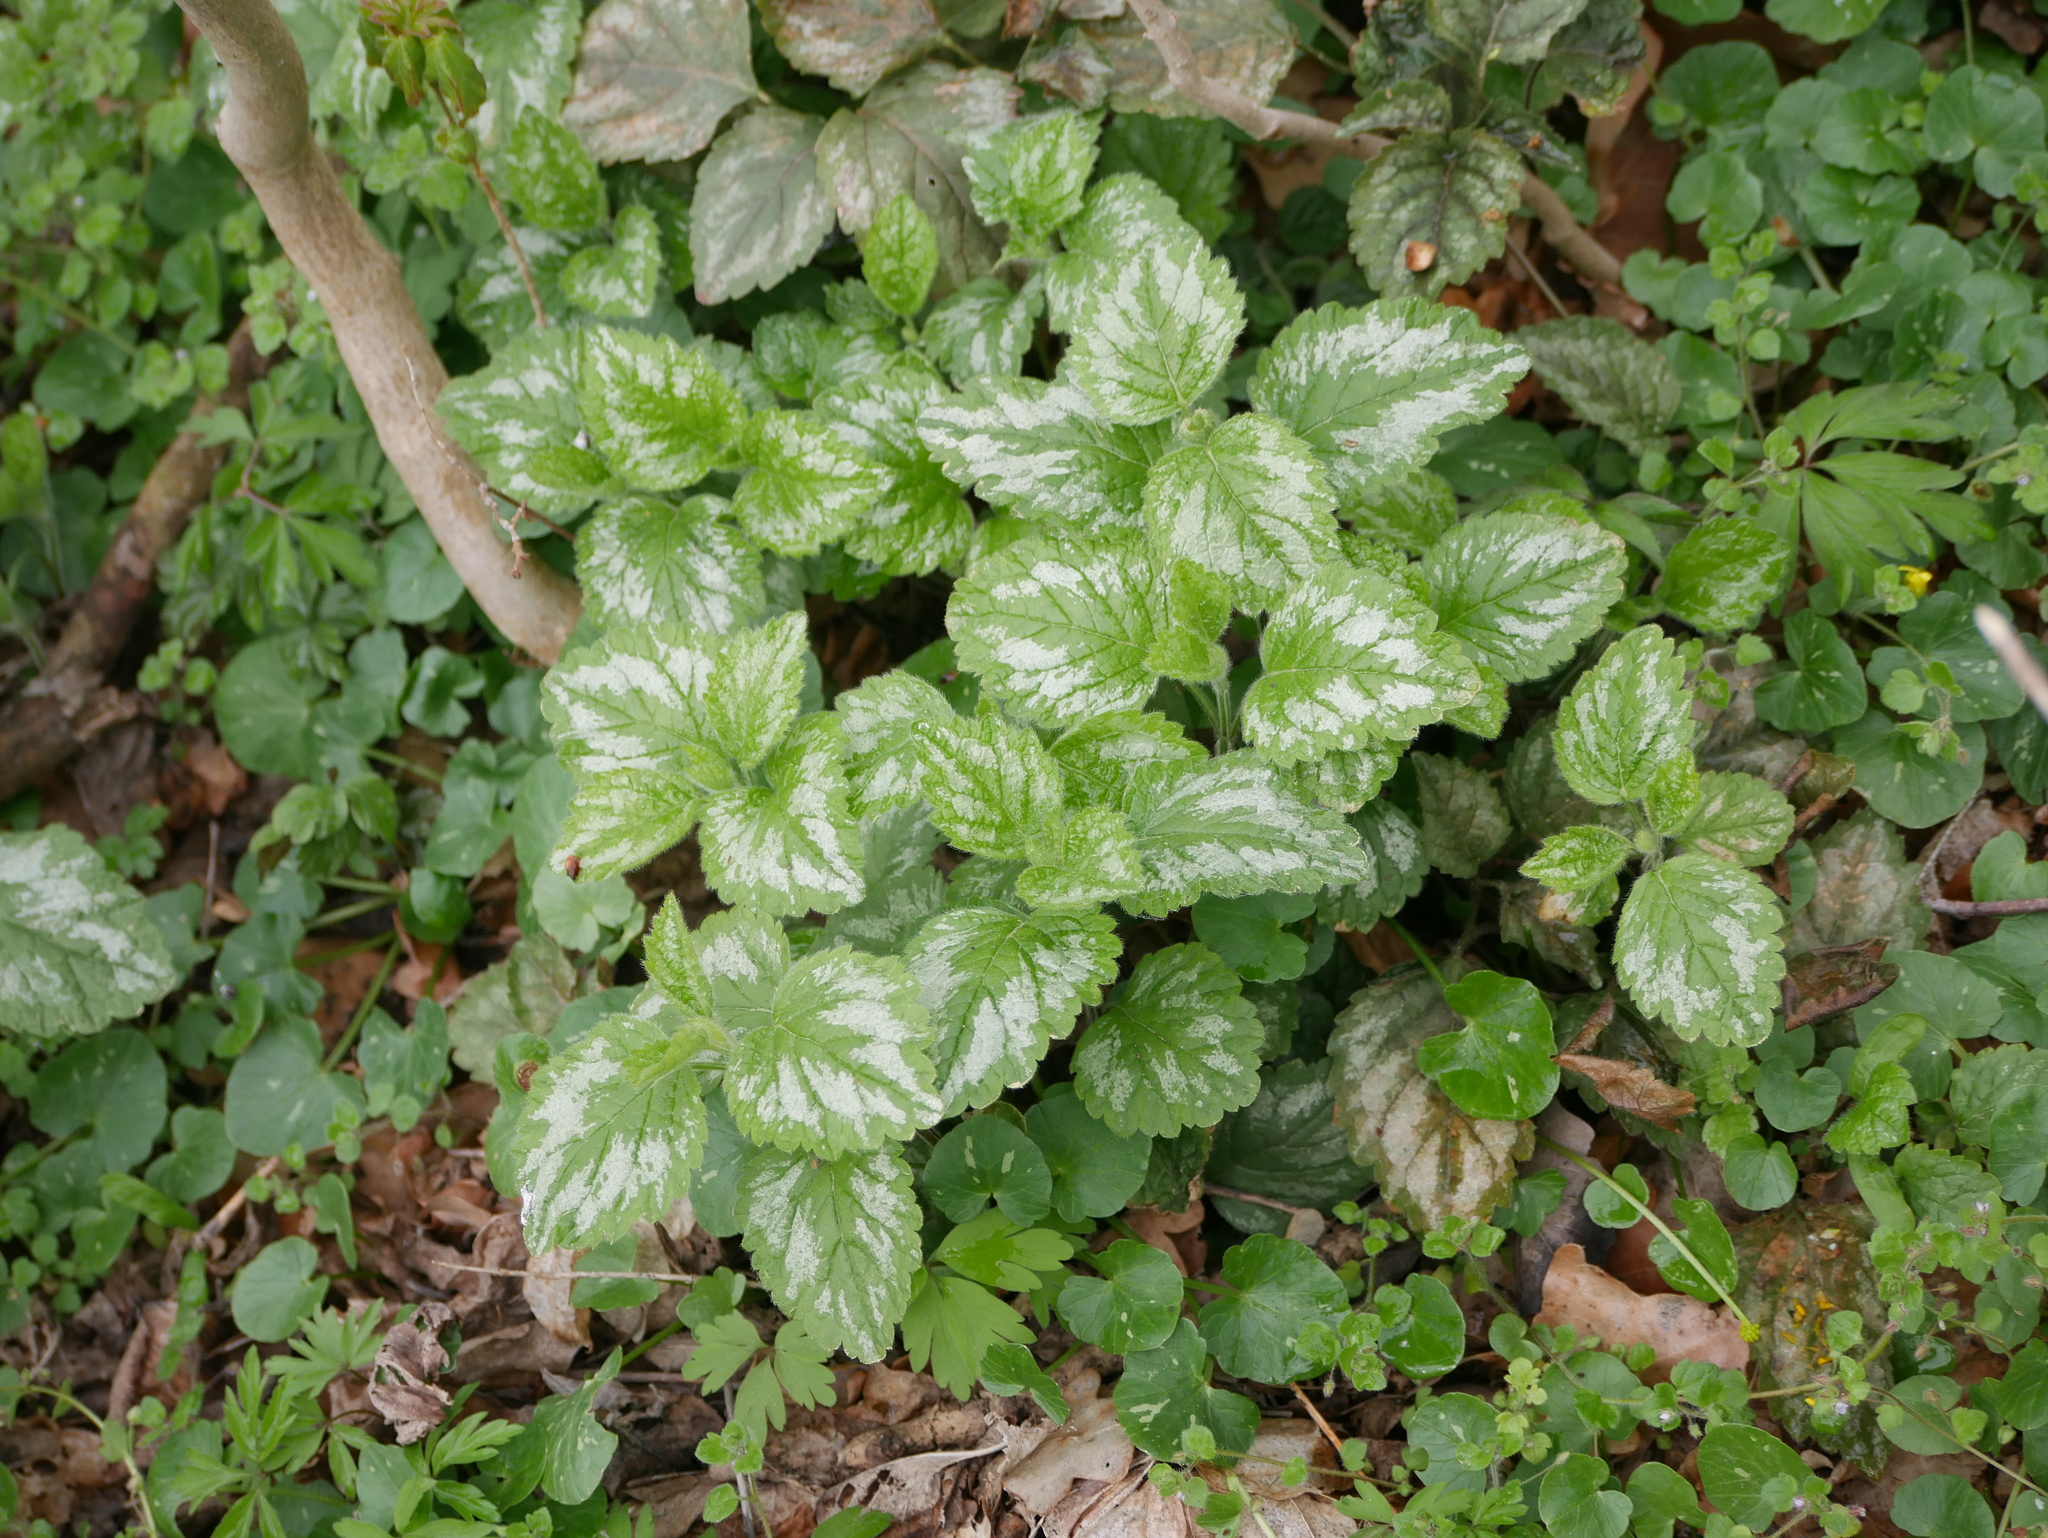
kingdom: Plantae
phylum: Tracheophyta
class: Magnoliopsida
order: Lamiales
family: Lamiaceae
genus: Lamium
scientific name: Lamium galeobdolon
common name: Yellow archangel
